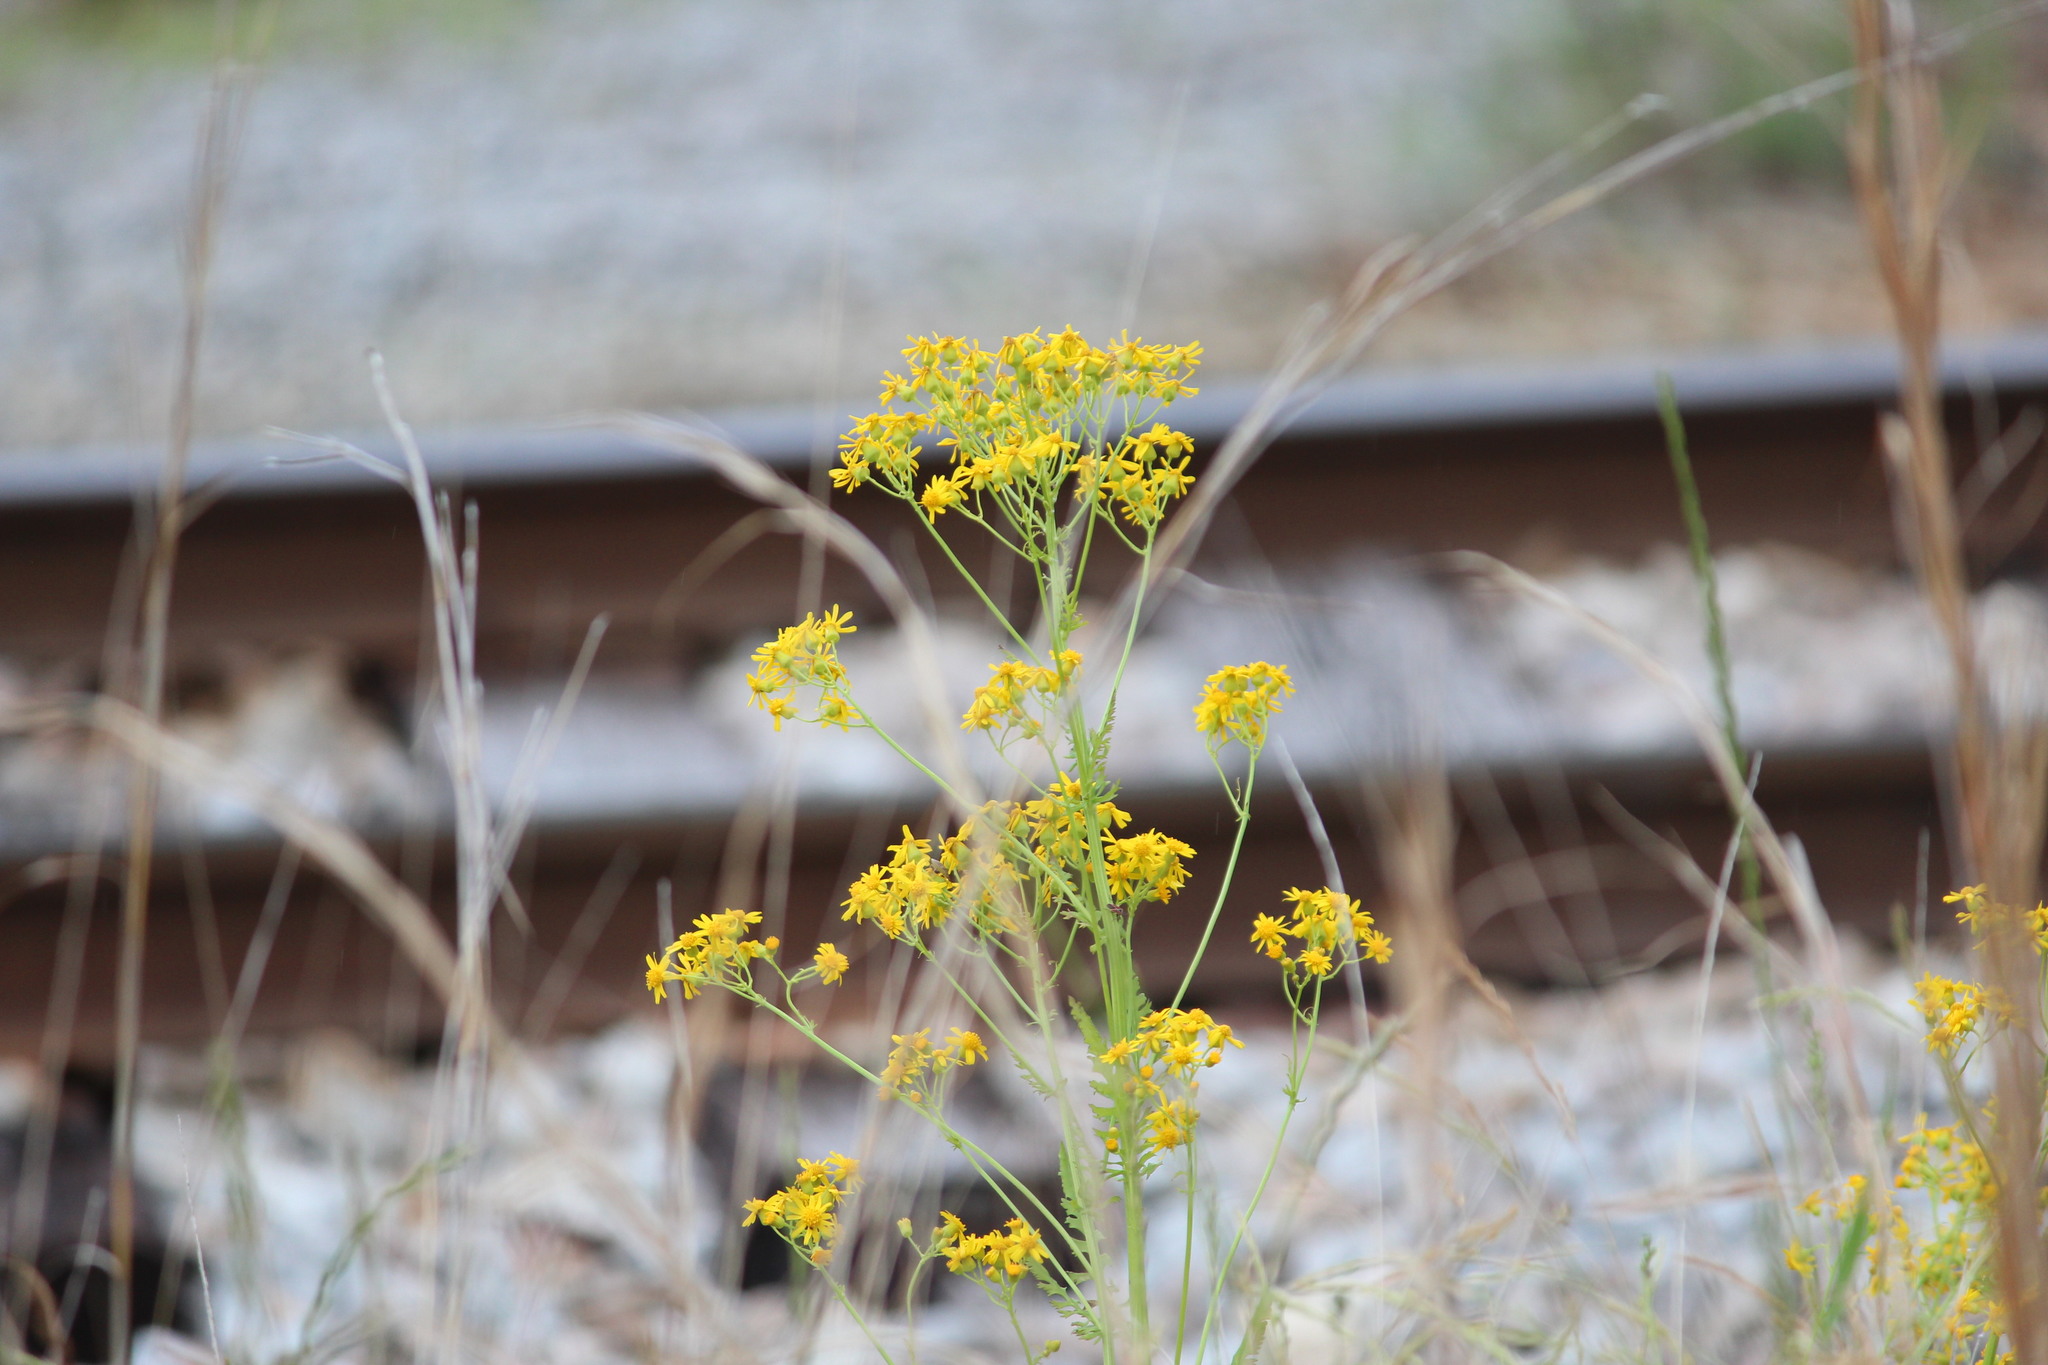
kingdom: Plantae
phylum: Tracheophyta
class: Magnoliopsida
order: Asterales
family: Asteraceae
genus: Packera
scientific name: Packera anonyma
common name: Small ragwort
